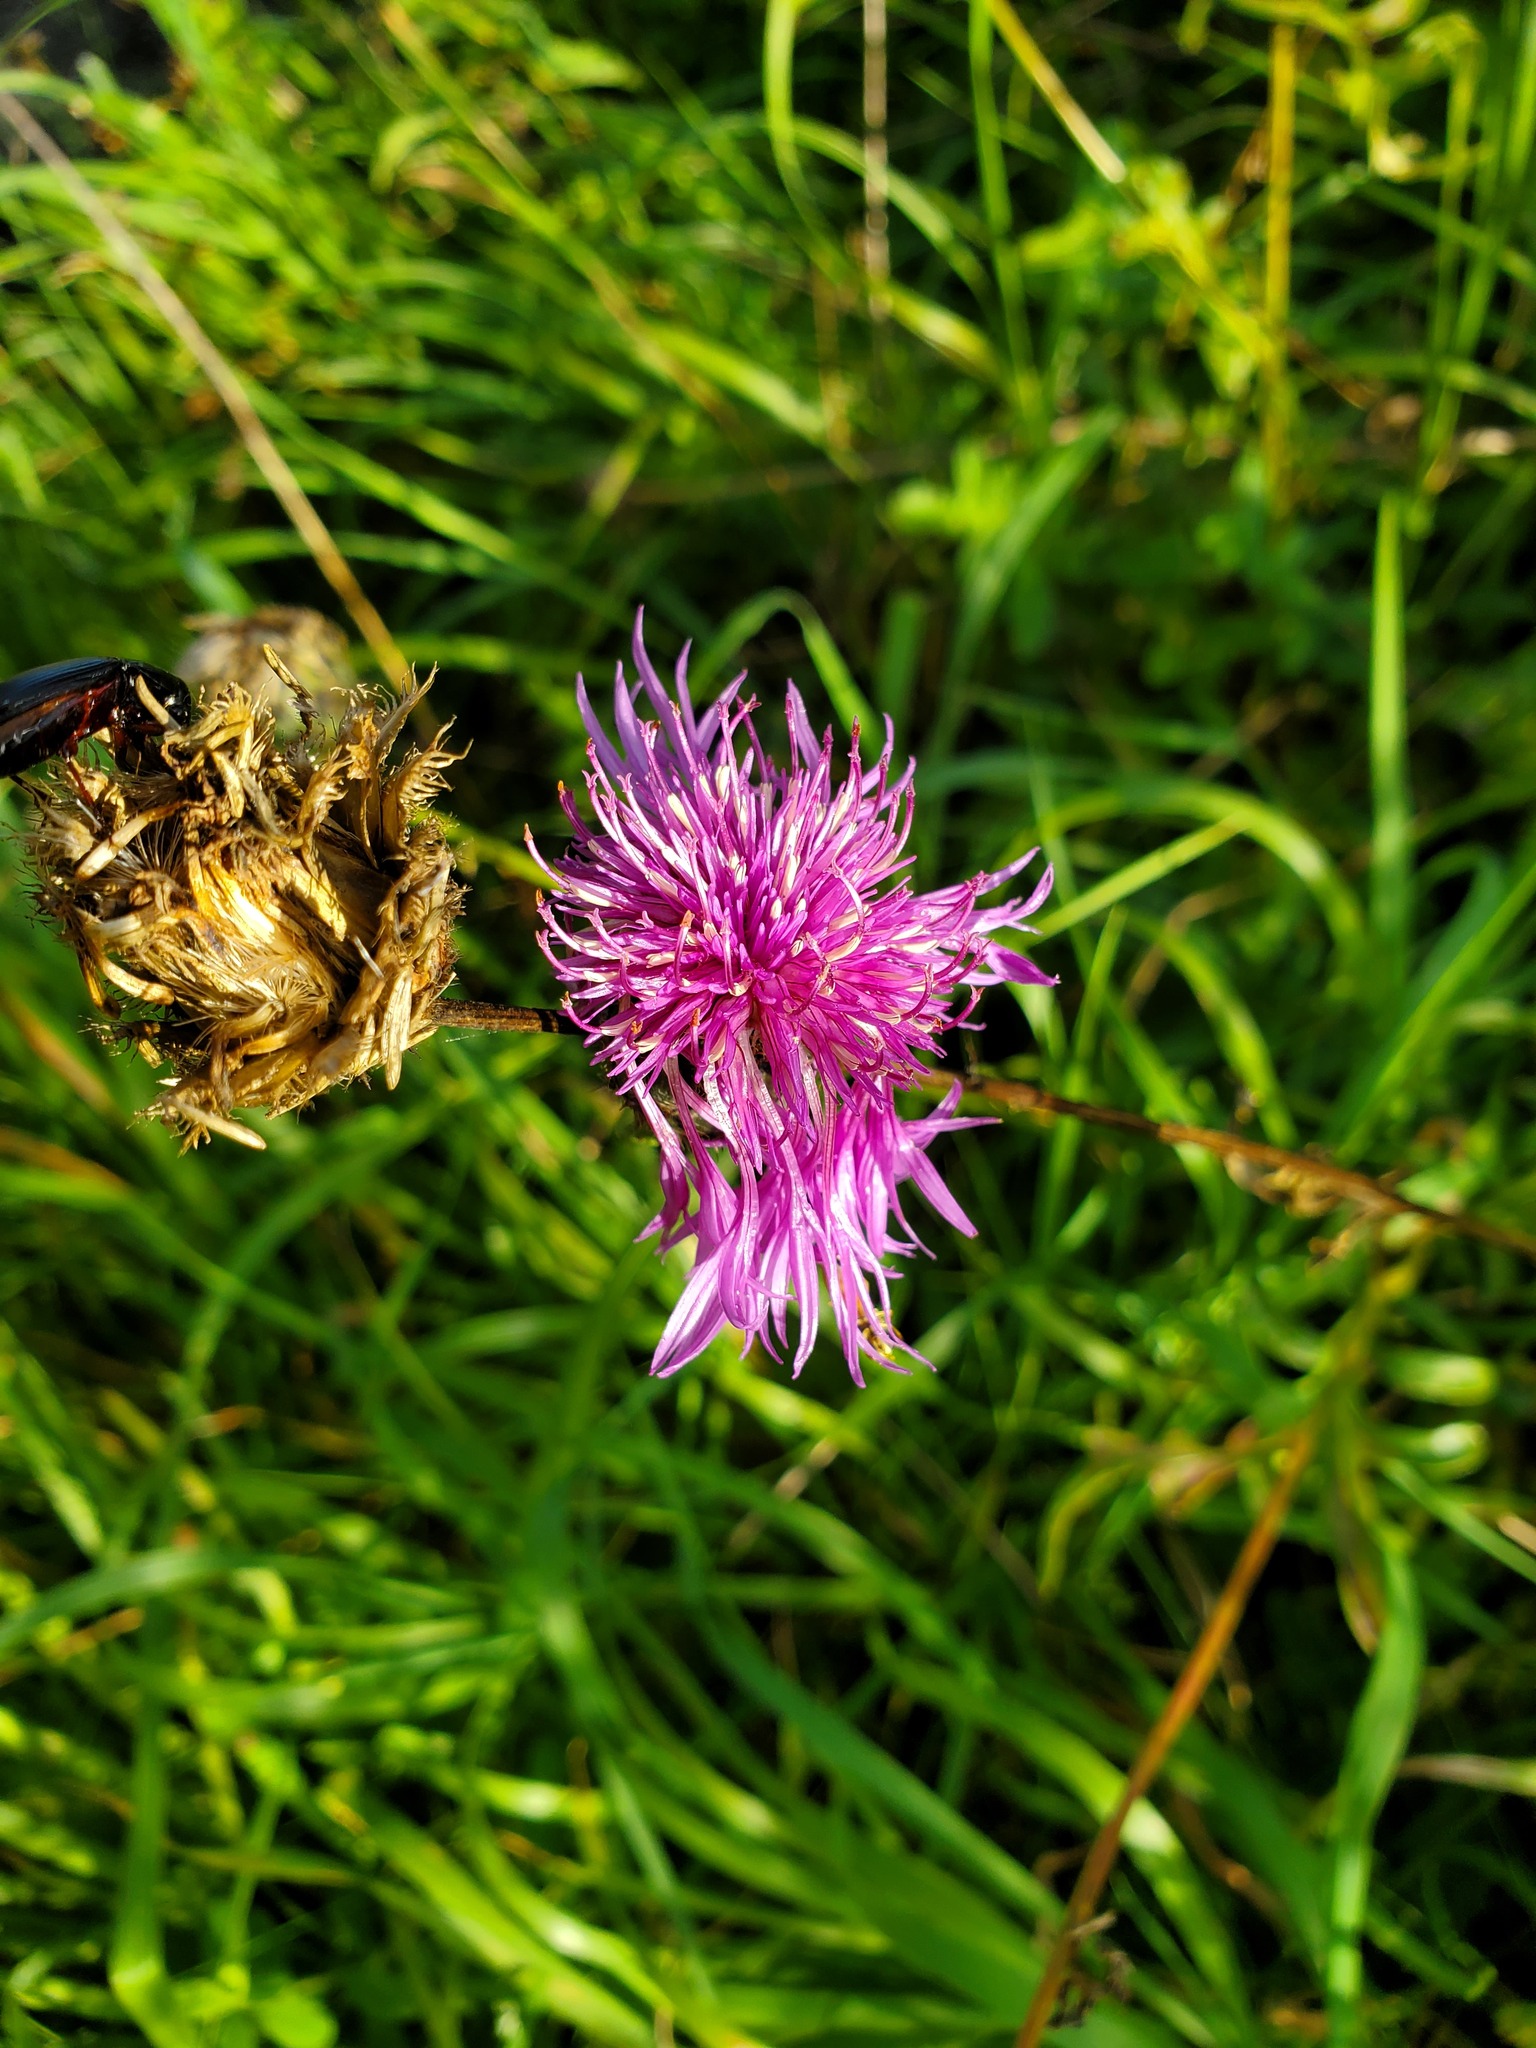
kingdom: Plantae
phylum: Tracheophyta
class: Magnoliopsida
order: Asterales
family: Asteraceae
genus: Centaurea
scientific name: Centaurea scabiosa
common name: Greater knapweed
